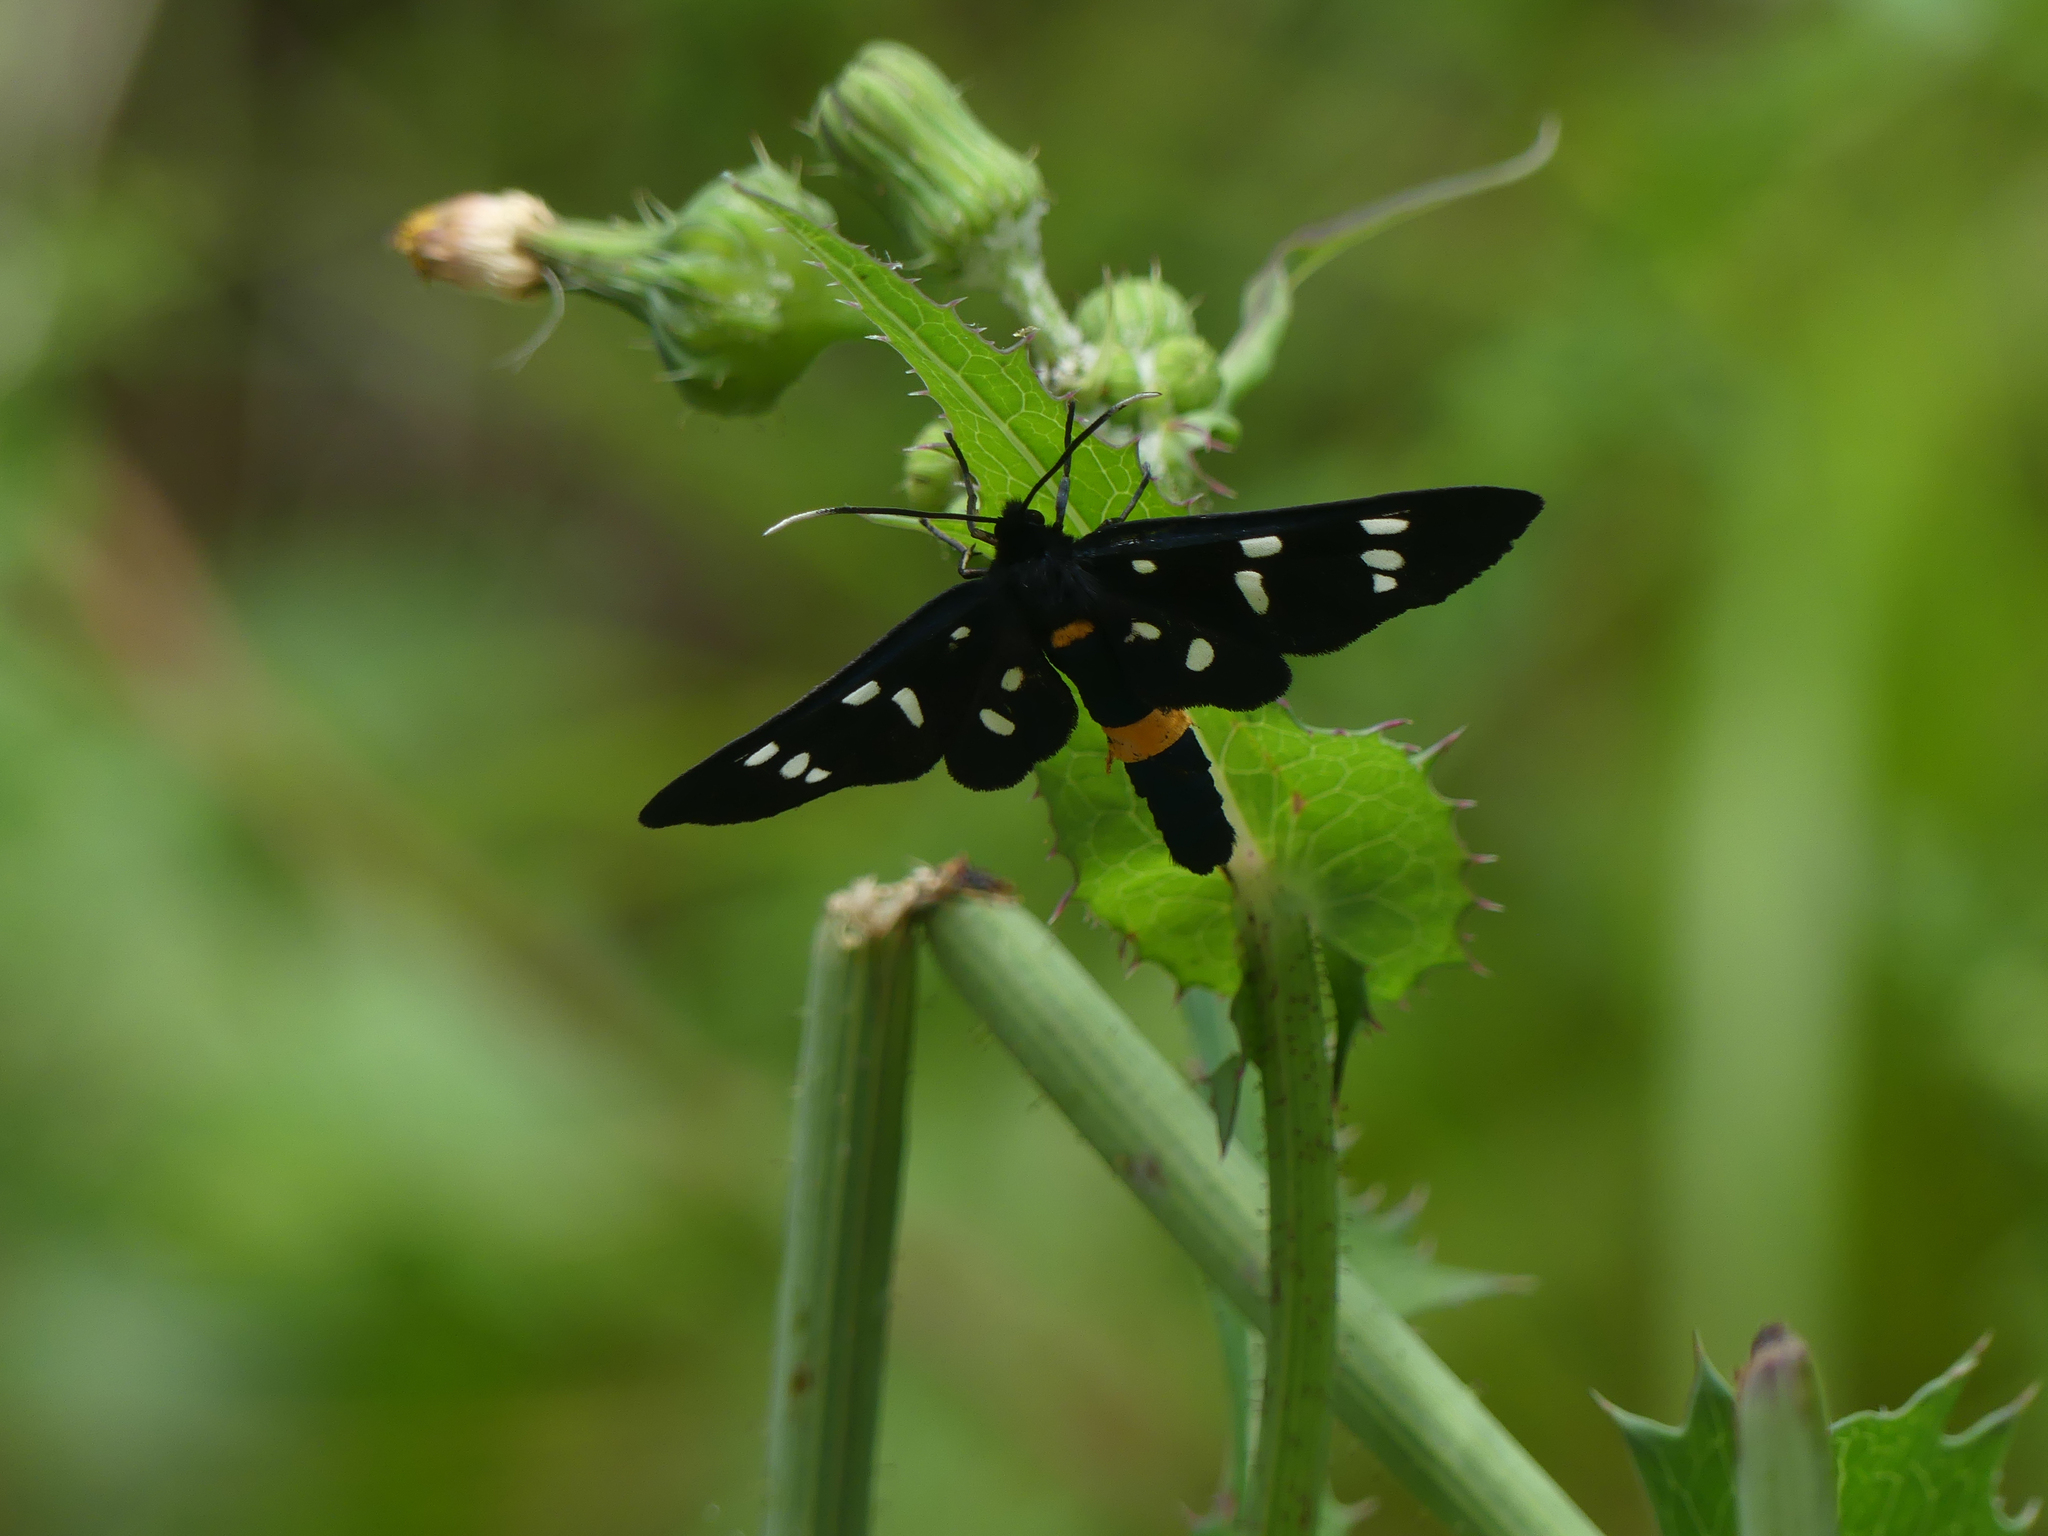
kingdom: Animalia
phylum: Arthropoda
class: Insecta
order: Lepidoptera
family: Erebidae
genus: Amata
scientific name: Amata phegea
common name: Nine-spotted
